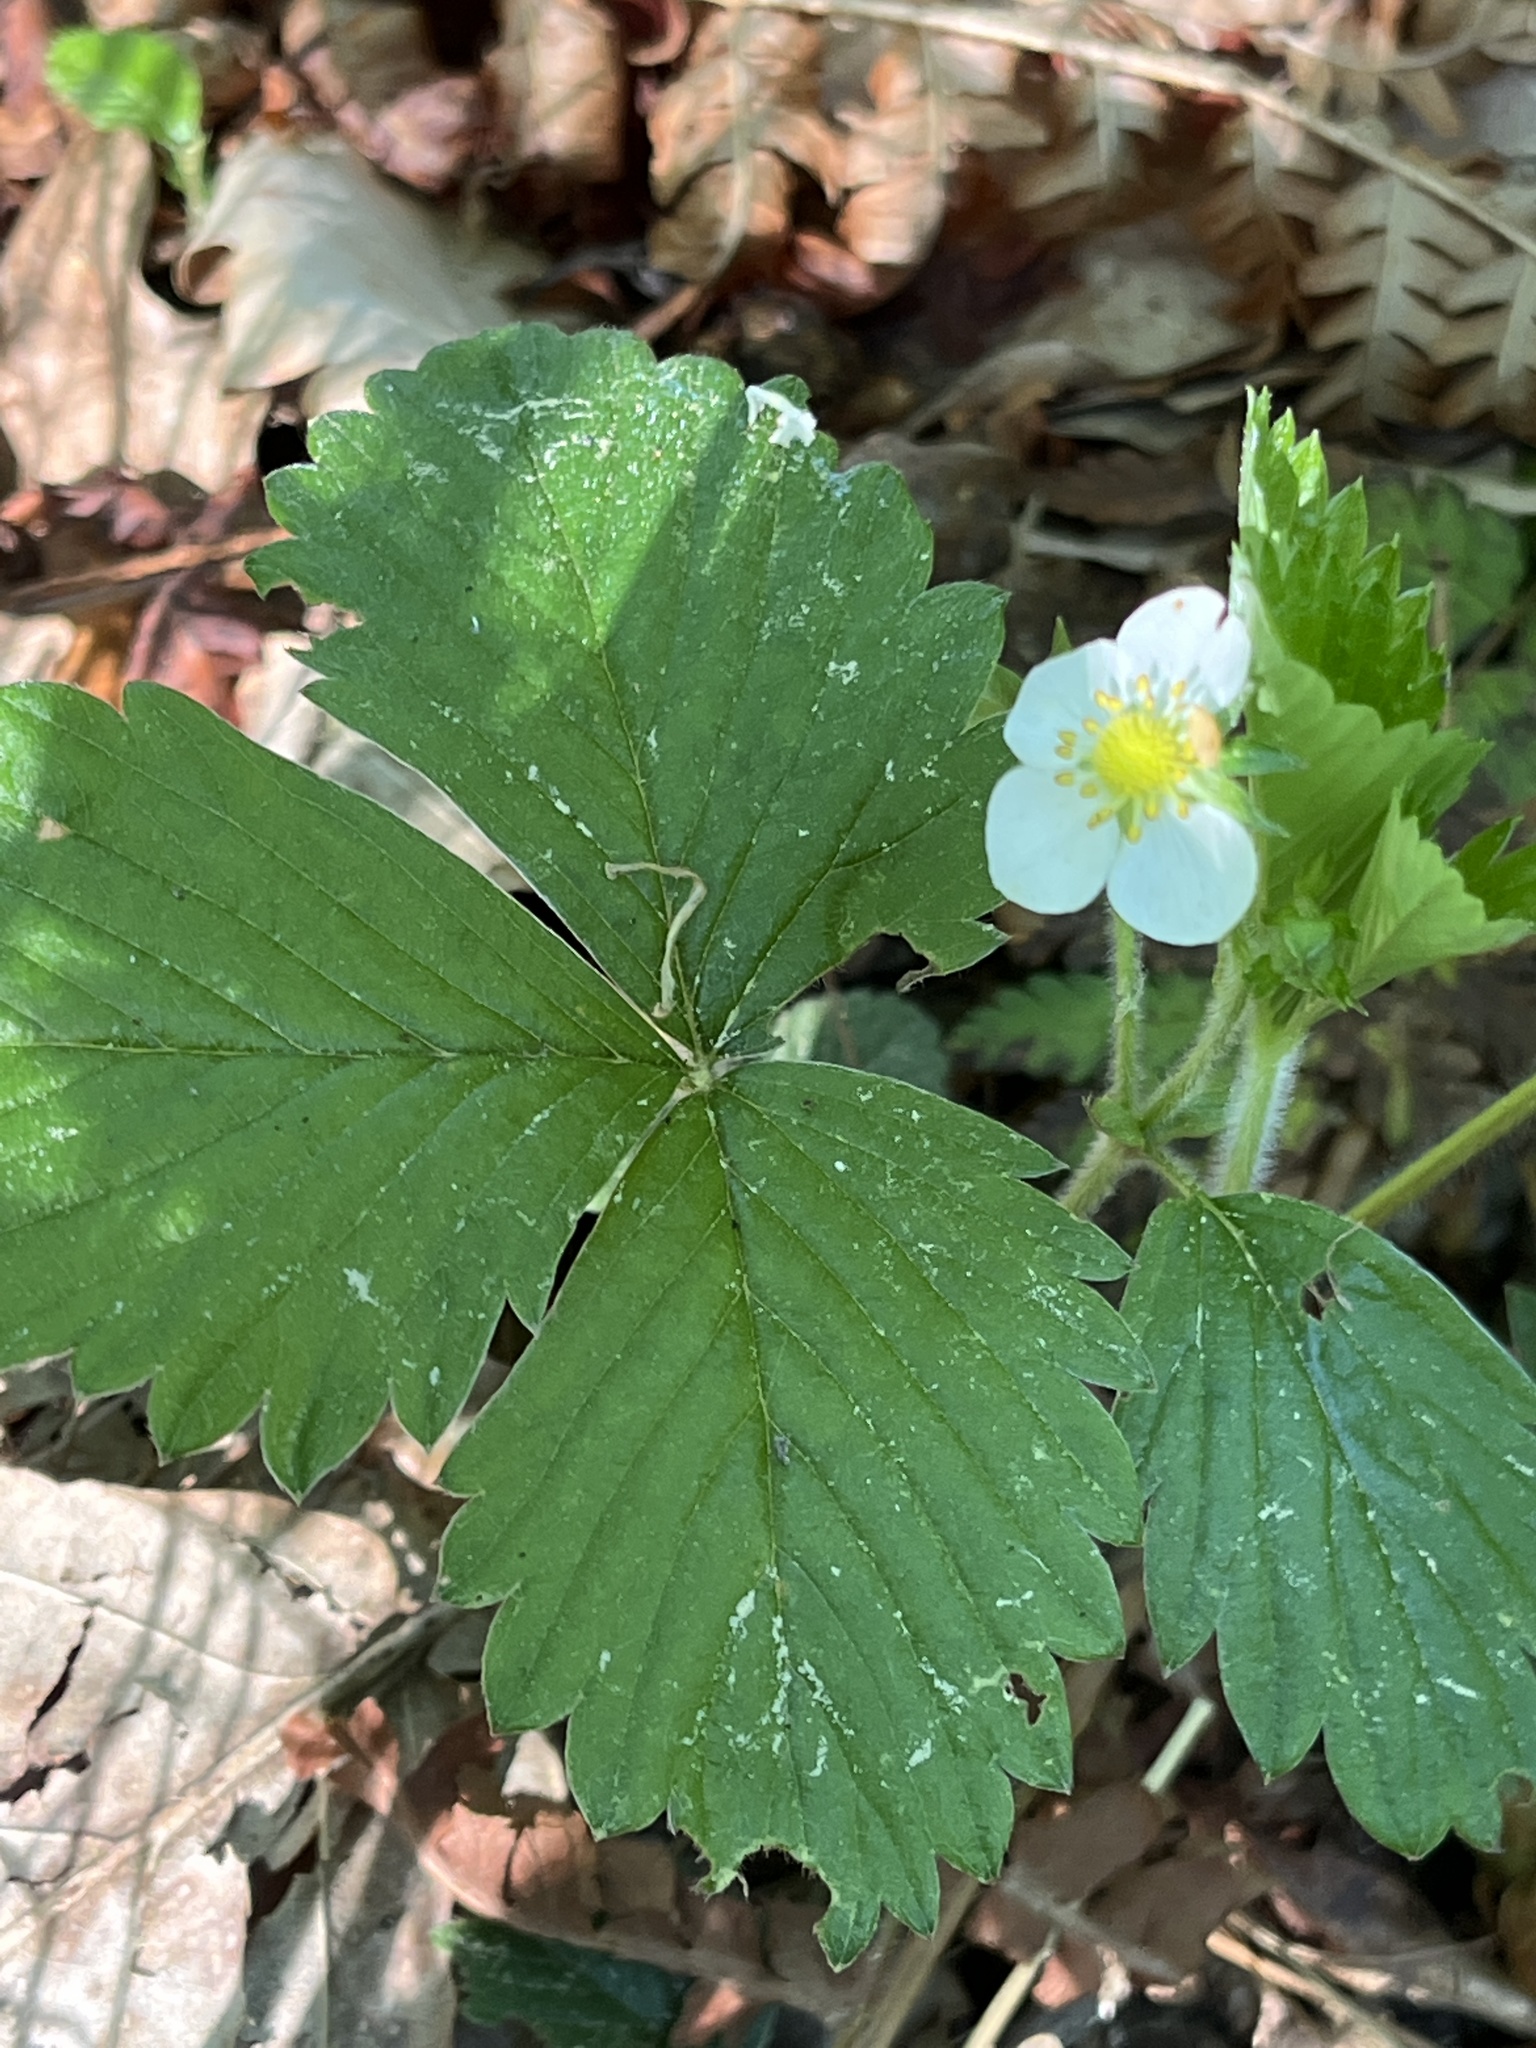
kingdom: Plantae
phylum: Tracheophyta
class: Magnoliopsida
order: Rosales
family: Rosaceae
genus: Fragaria
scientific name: Fragaria vesca
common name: Wild strawberry
